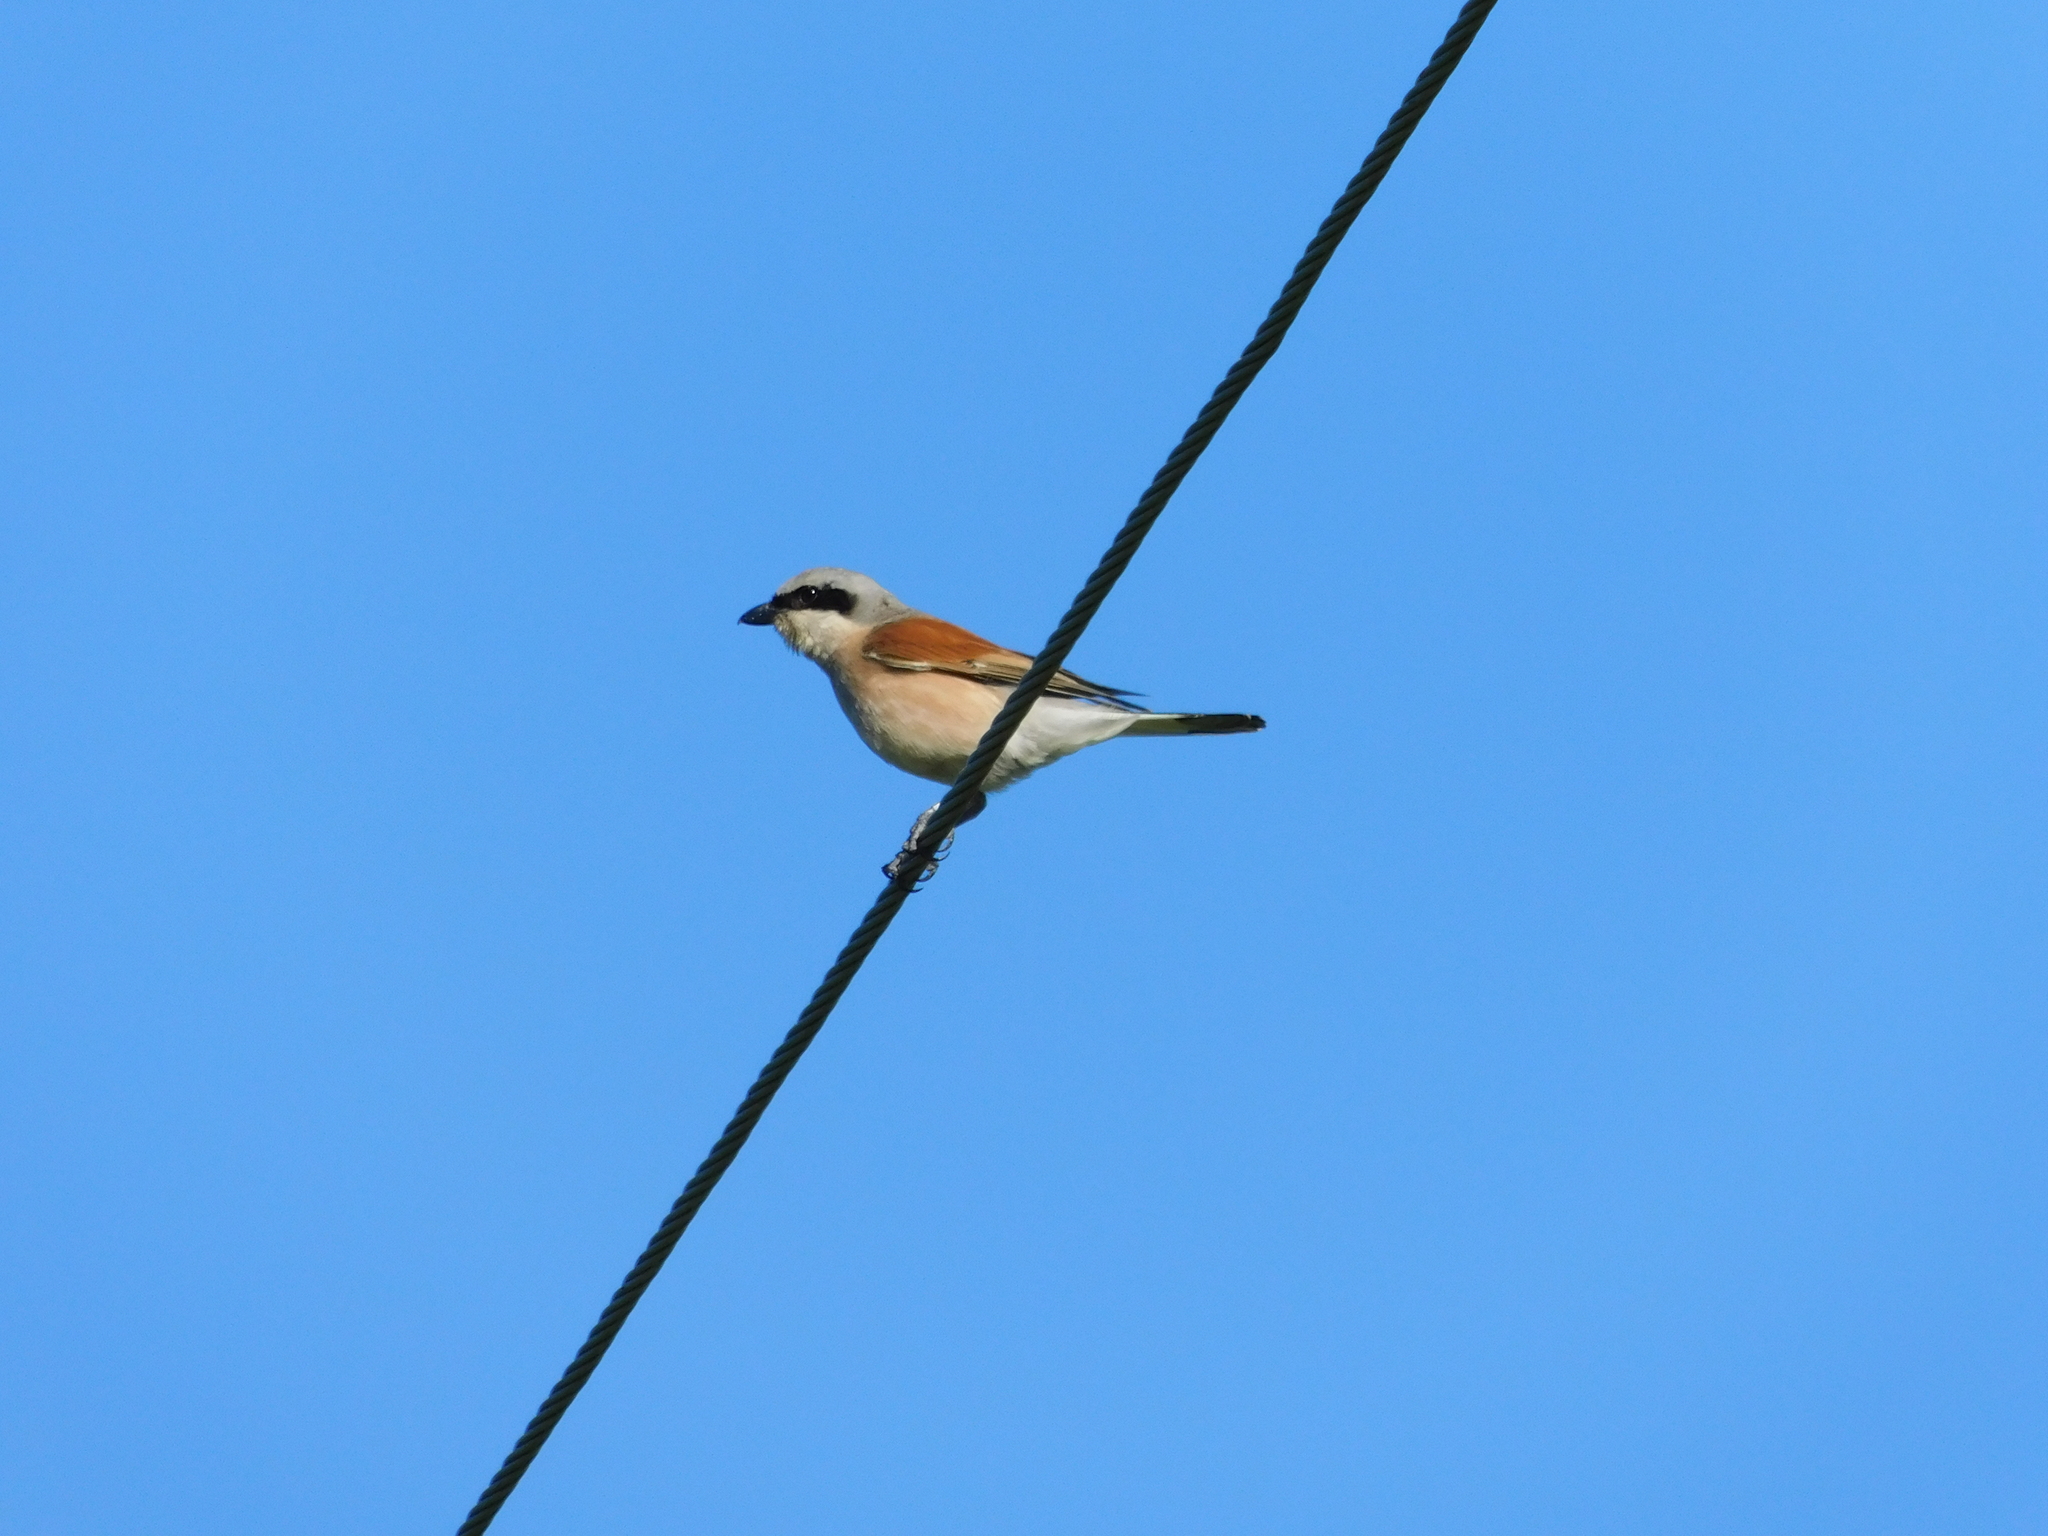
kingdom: Animalia
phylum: Chordata
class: Aves
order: Passeriformes
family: Laniidae
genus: Lanius
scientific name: Lanius collurio
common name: Red-backed shrike
